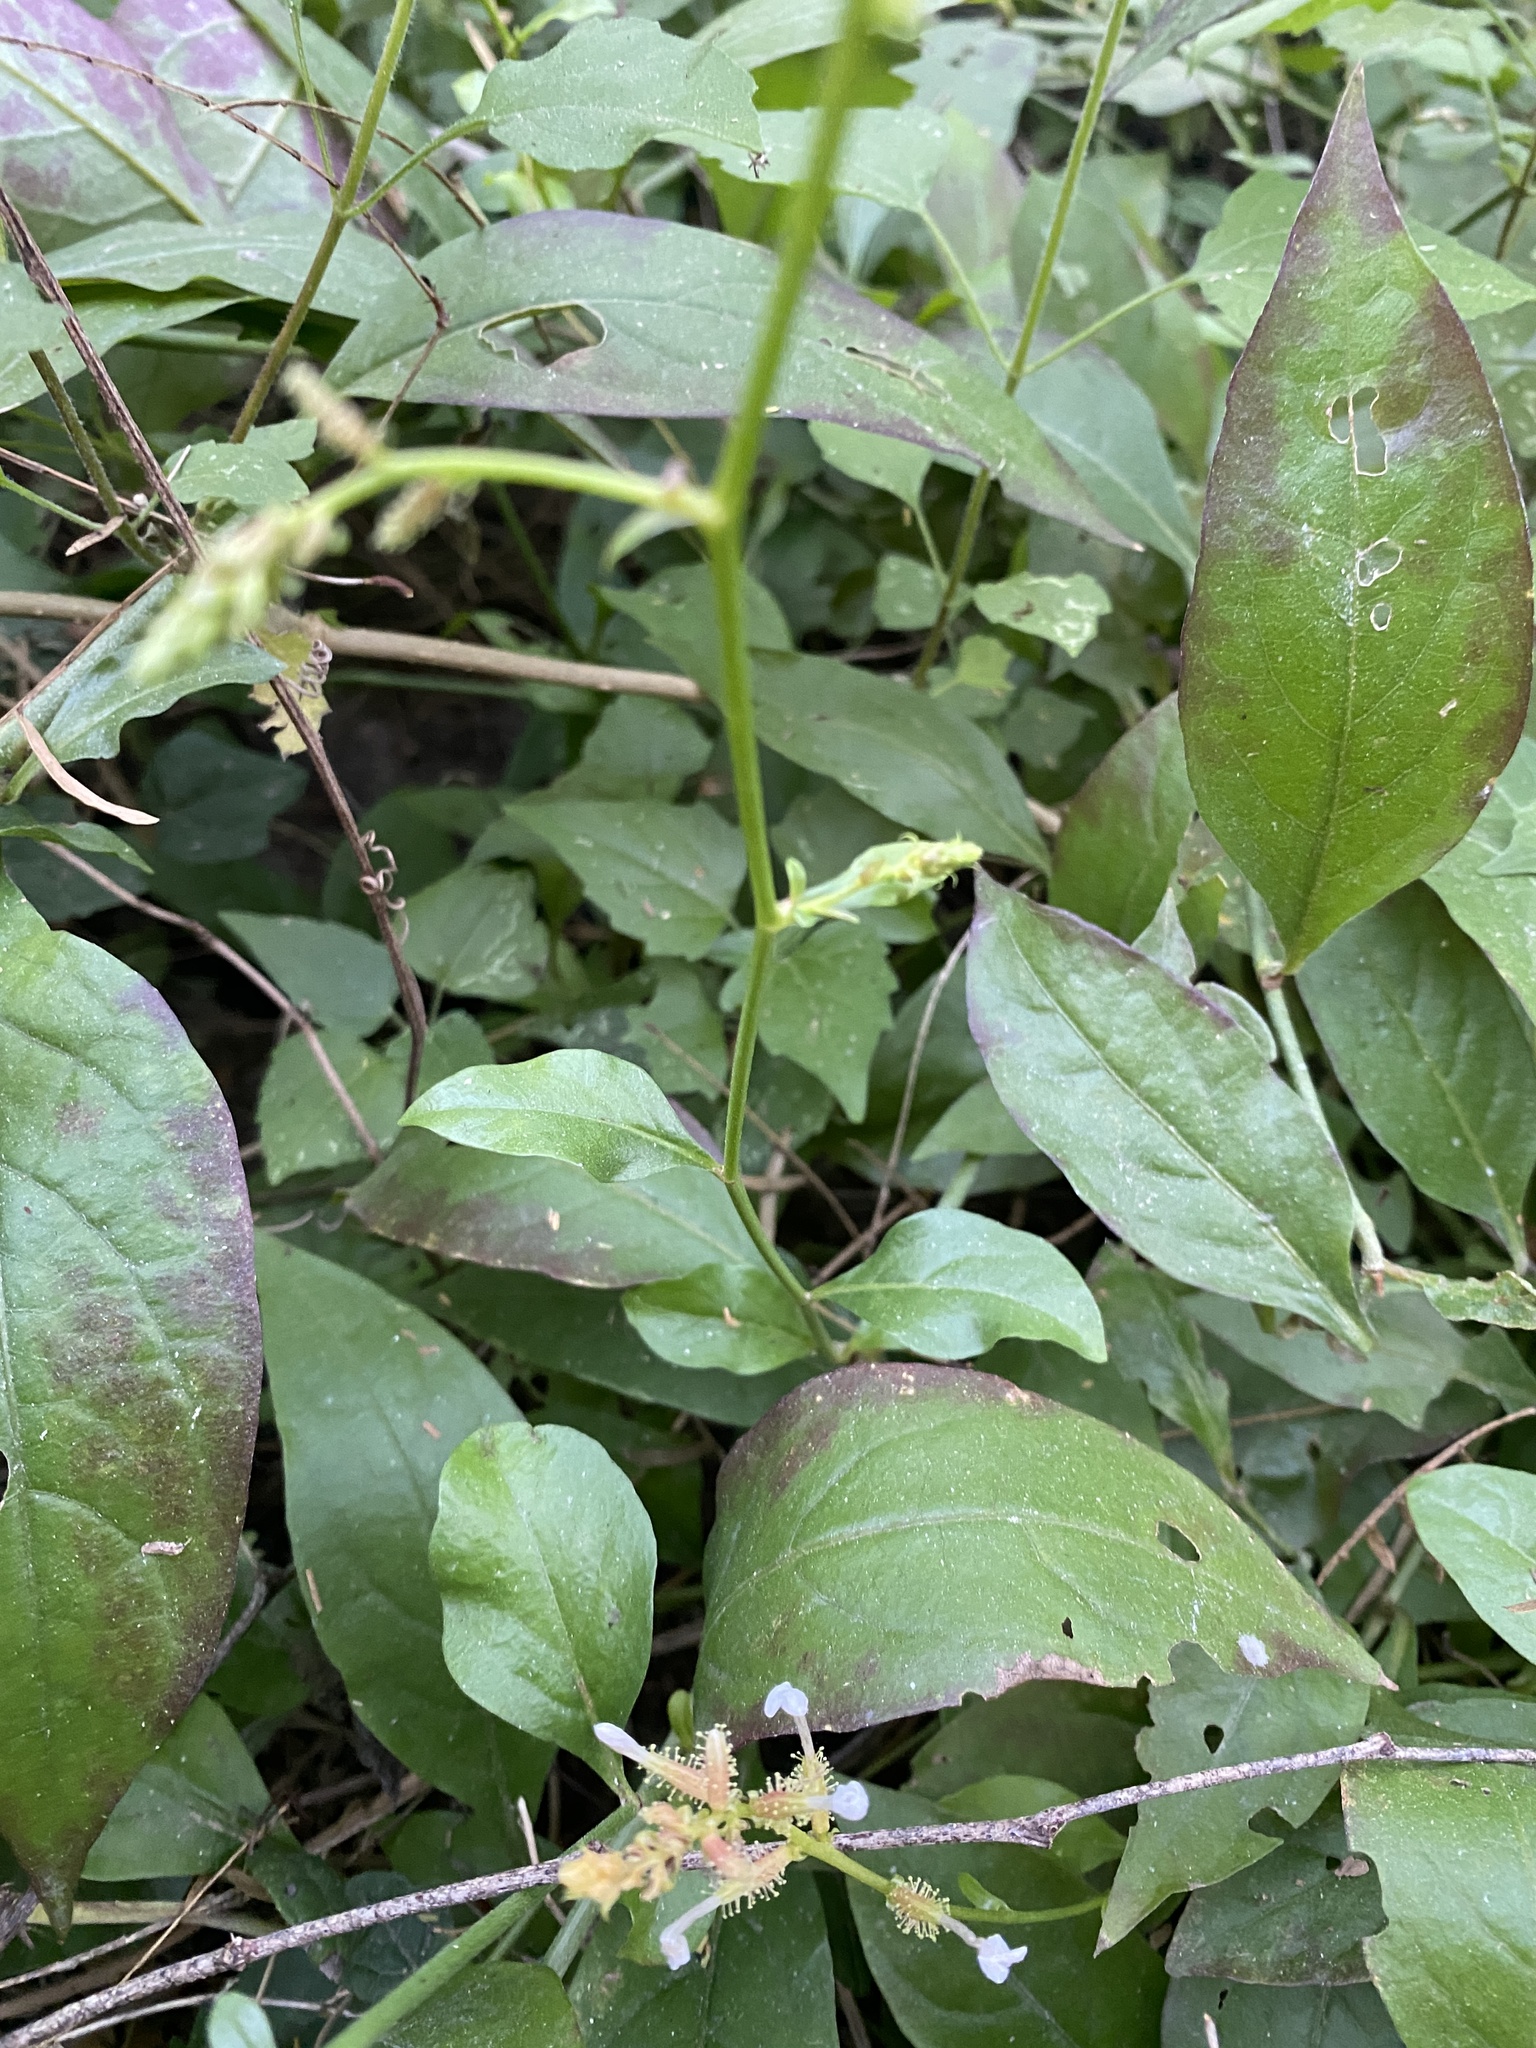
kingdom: Plantae
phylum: Tracheophyta
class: Magnoliopsida
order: Caryophyllales
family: Plumbaginaceae
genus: Plumbago
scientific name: Plumbago zeylanica
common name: Doctorbush
